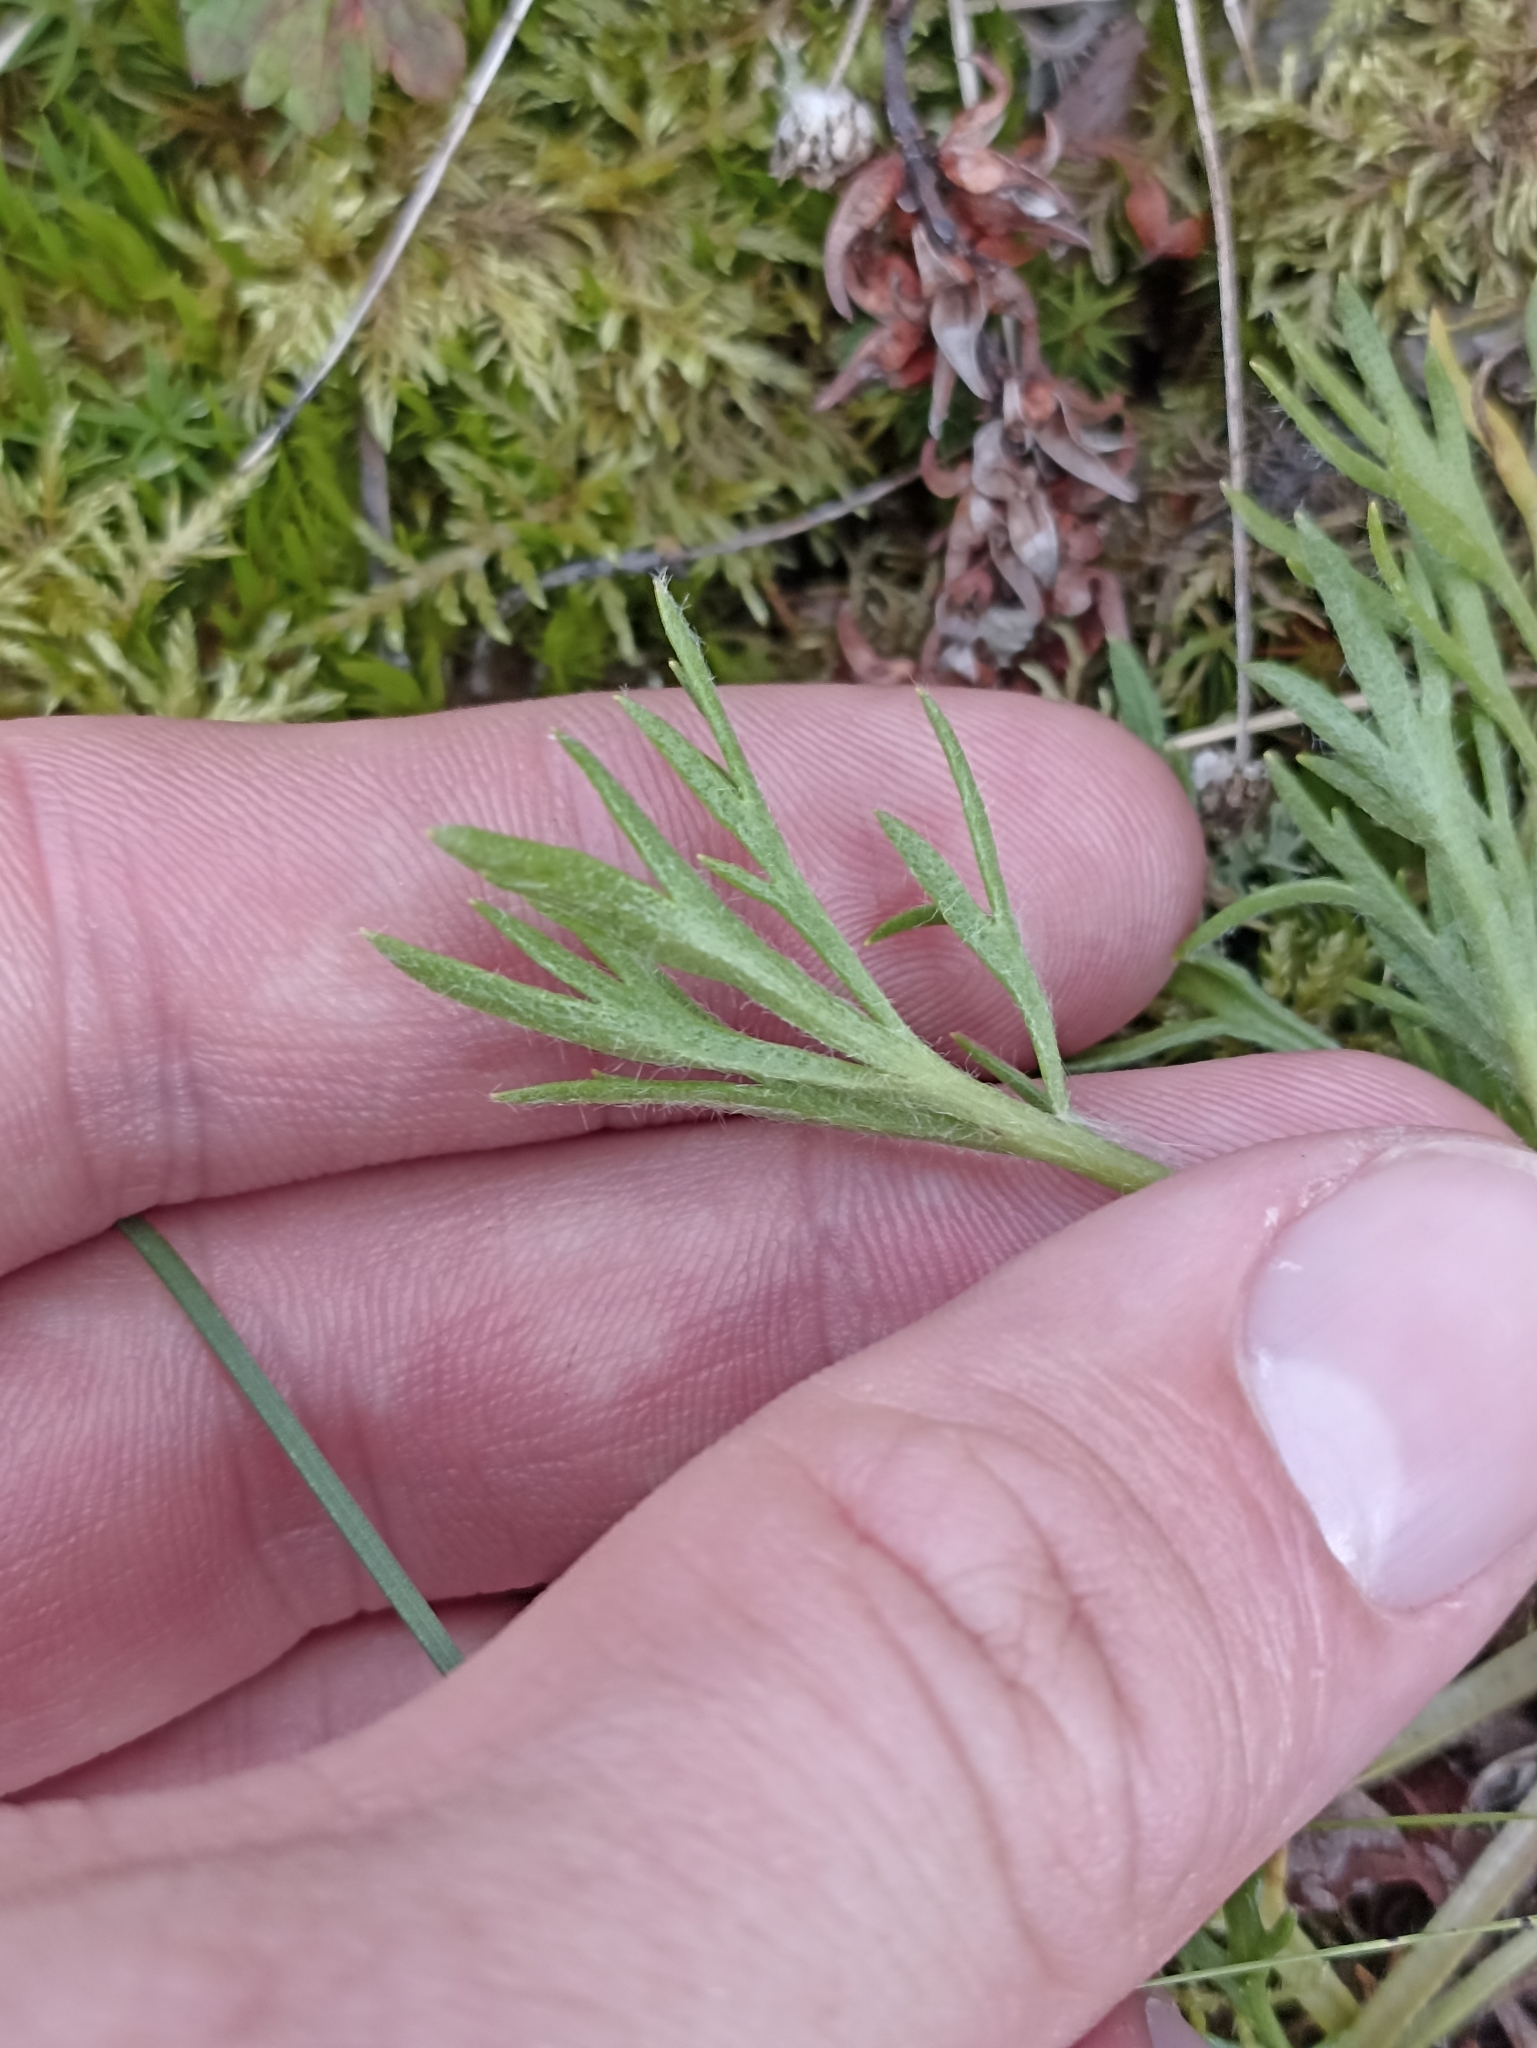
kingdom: Plantae
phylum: Tracheophyta
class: Magnoliopsida
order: Asterales
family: Asteraceae
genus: Artemisia
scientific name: Artemisia norvegica
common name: Norwegian mugwort
